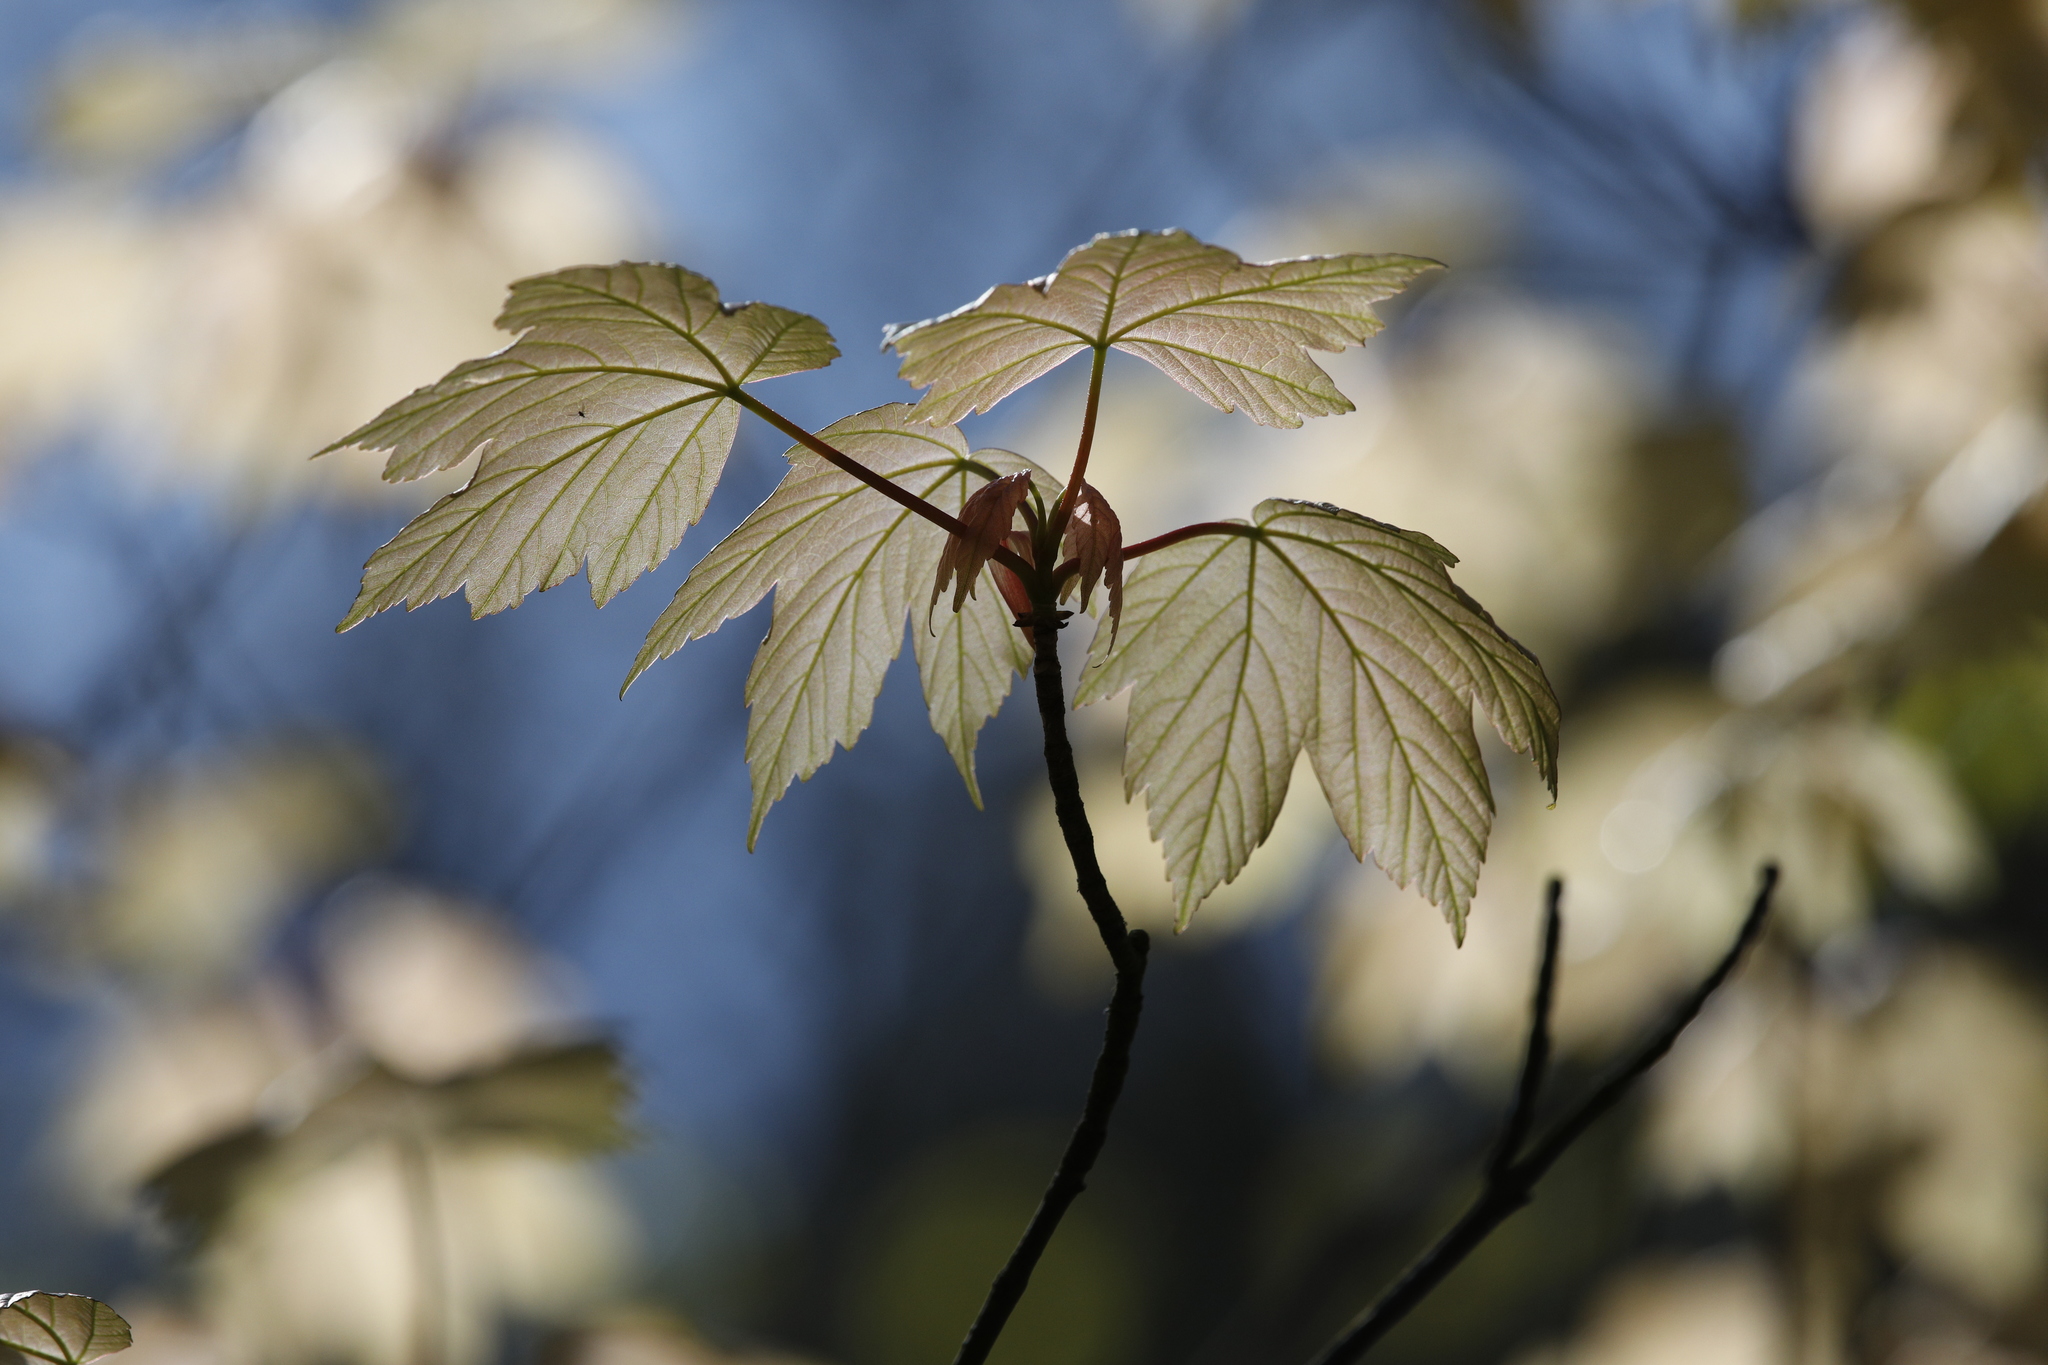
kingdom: Plantae
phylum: Tracheophyta
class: Magnoliopsida
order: Sapindales
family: Sapindaceae
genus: Acer
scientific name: Acer pseudoplatanus
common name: Sycamore
